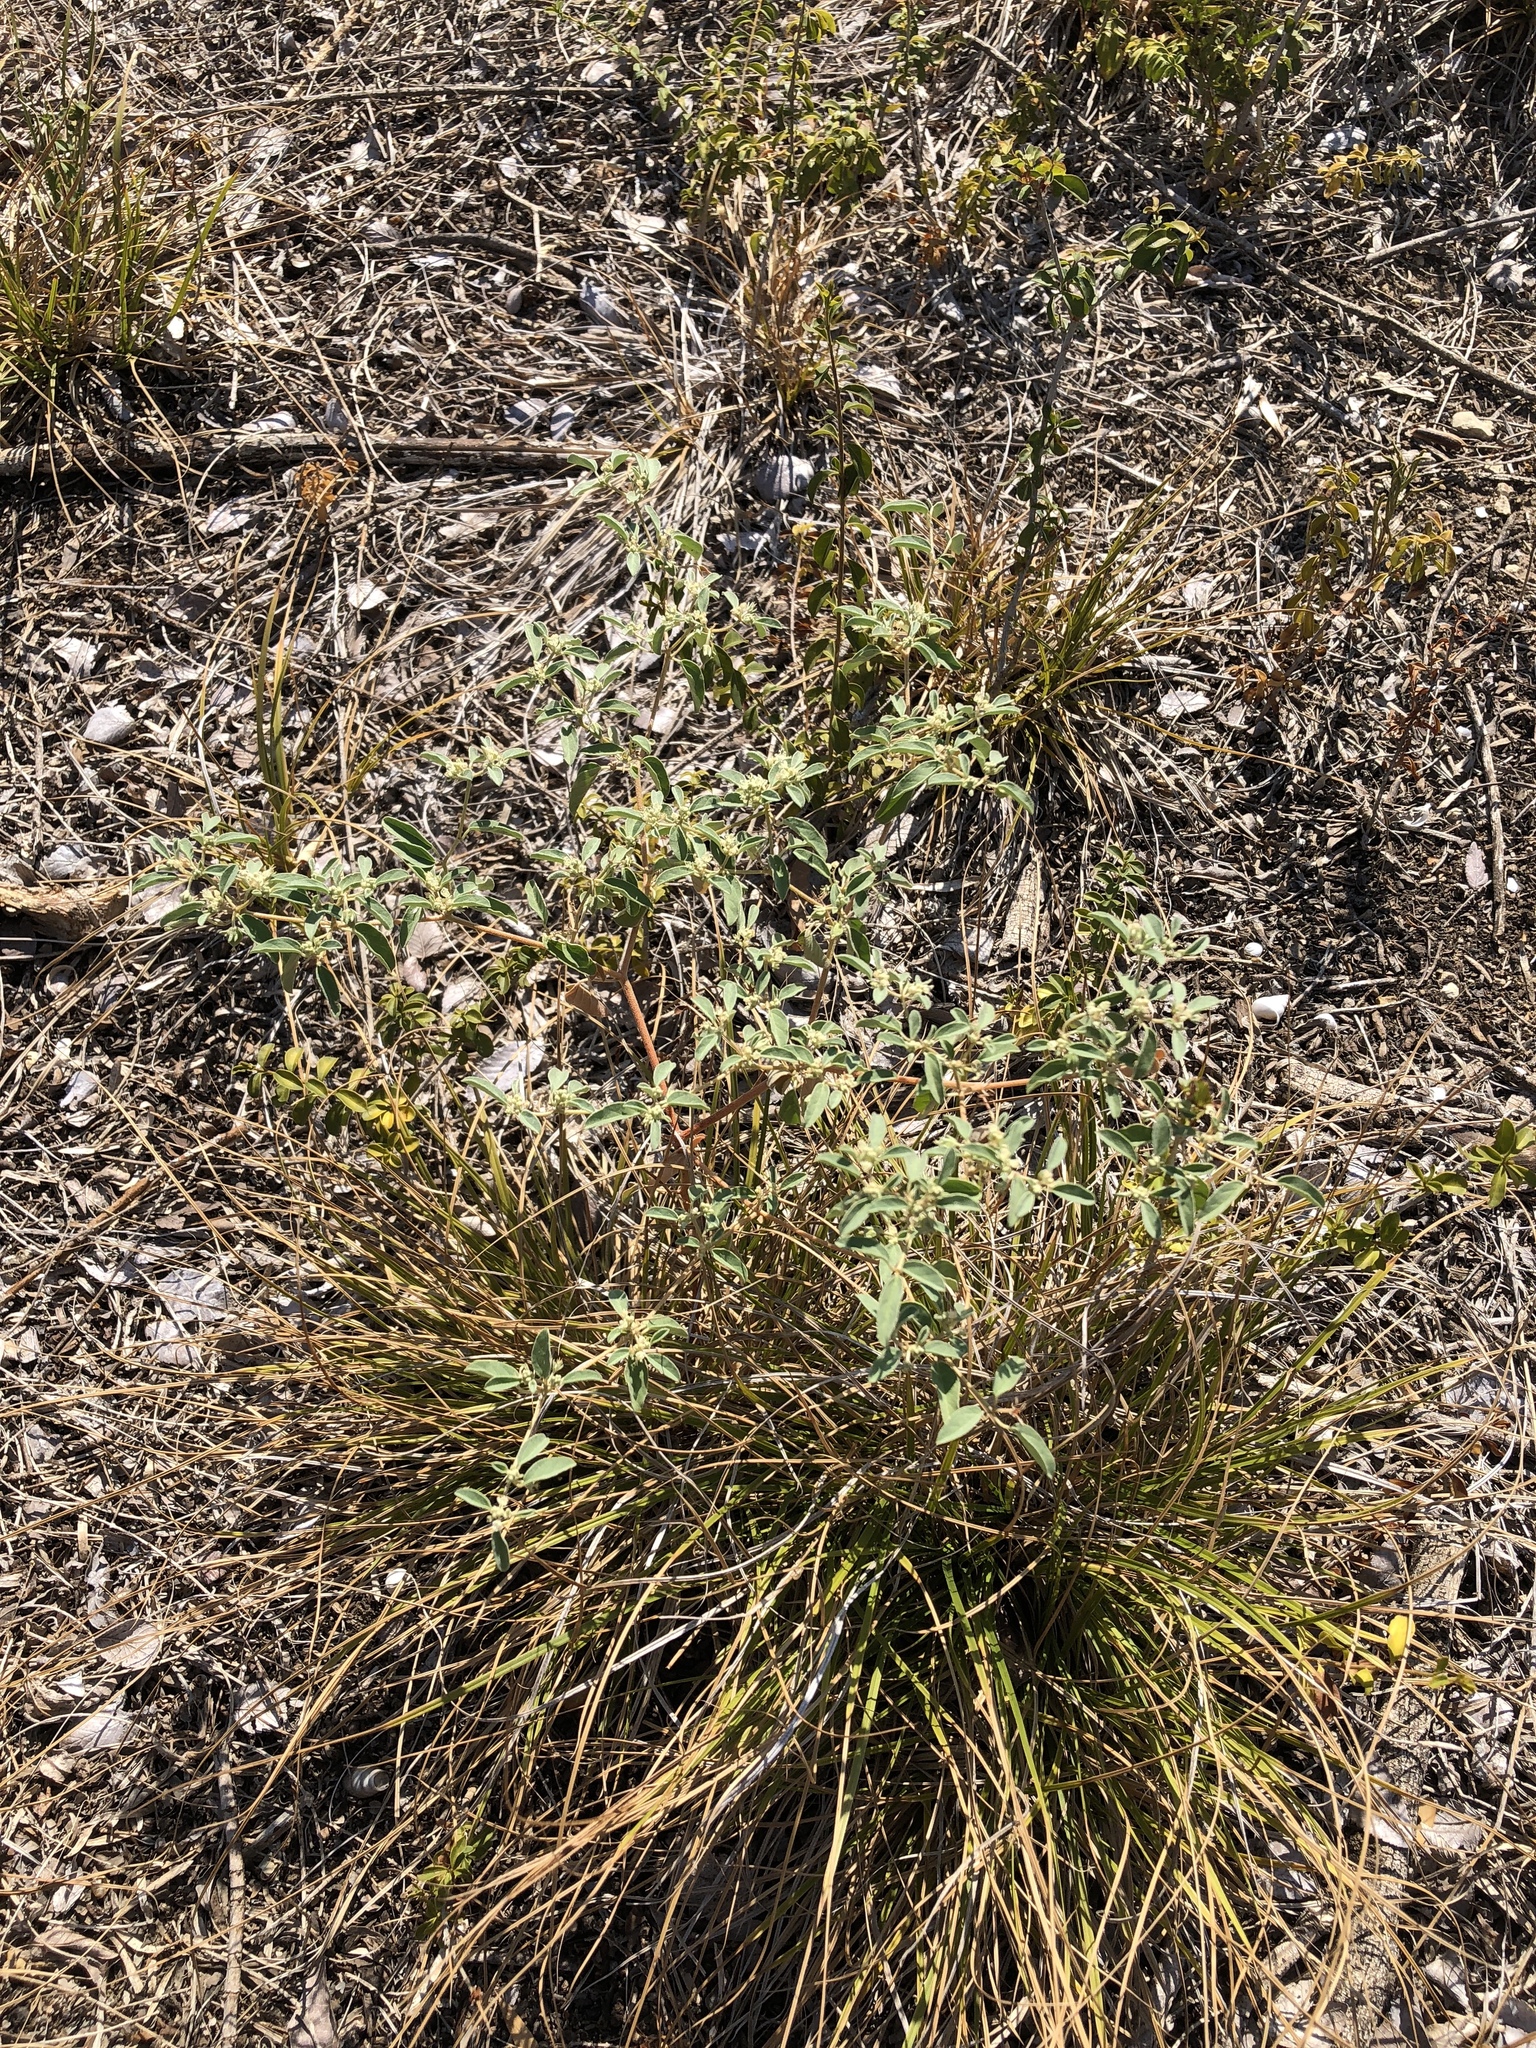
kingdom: Plantae
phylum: Tracheophyta
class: Magnoliopsida
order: Malpighiales
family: Euphorbiaceae
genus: Croton
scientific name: Croton monanthogynus
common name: One-seed croton
